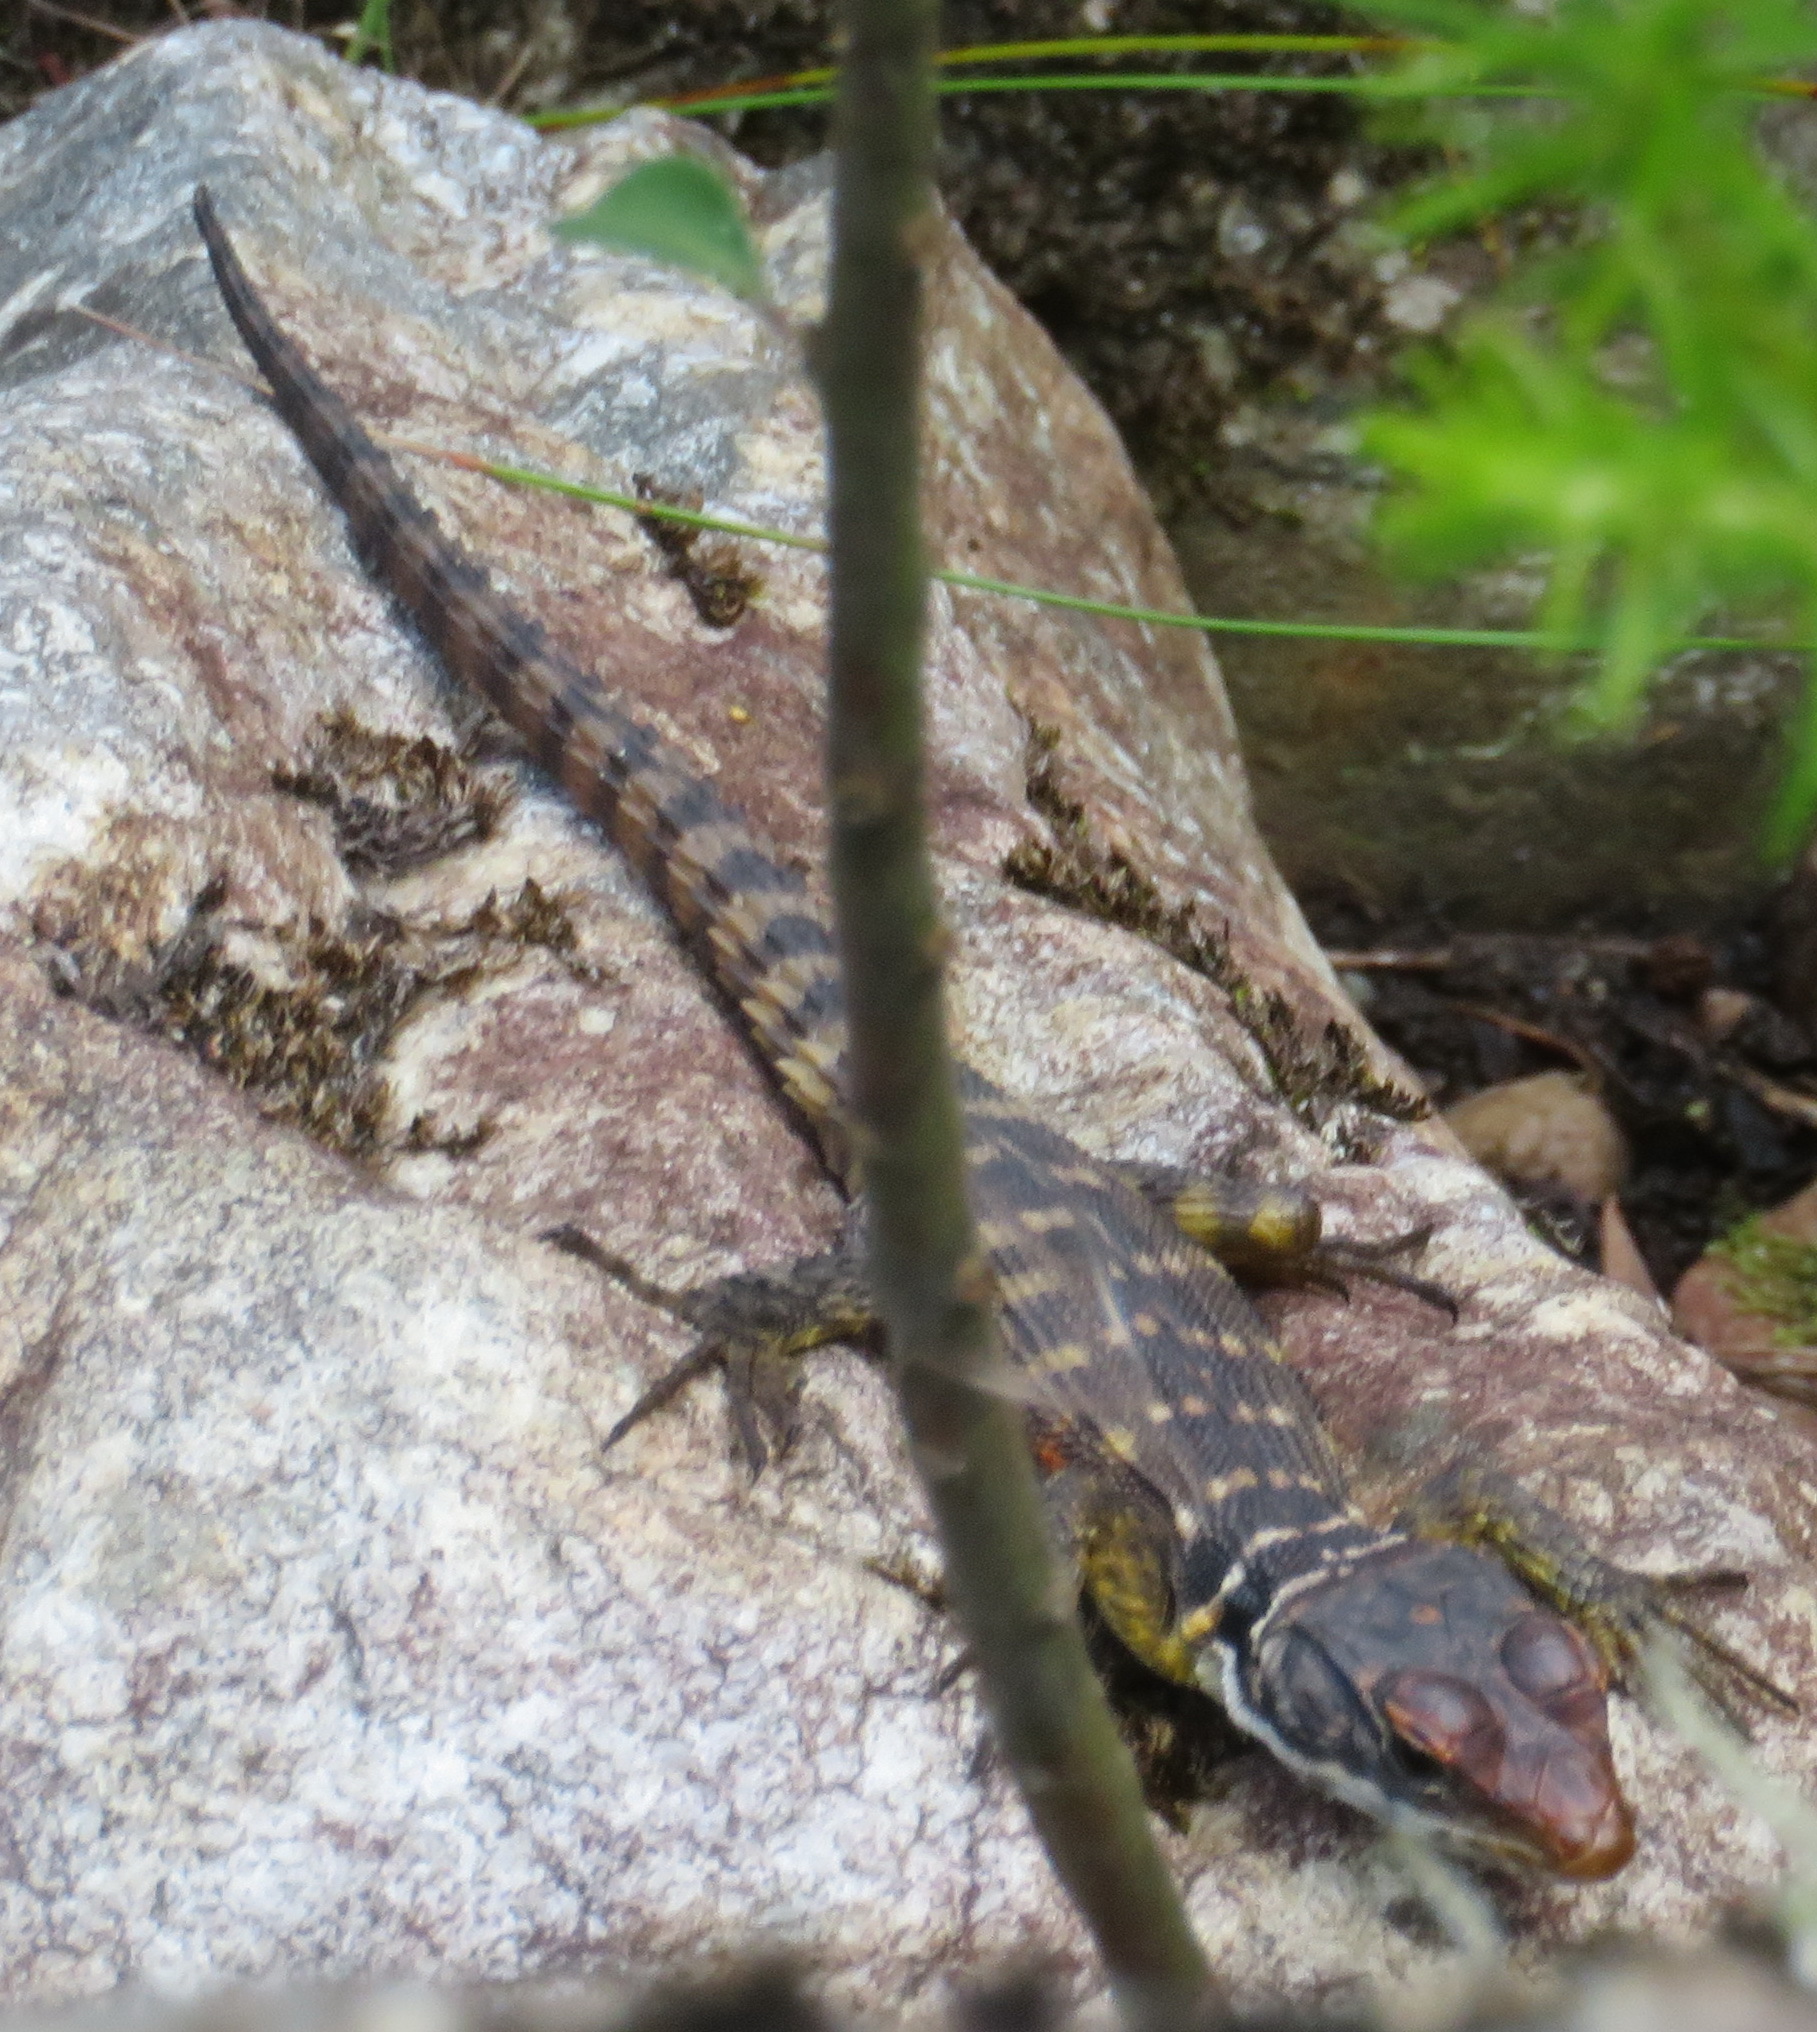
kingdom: Animalia
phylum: Chordata
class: Squamata
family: Cordylidae
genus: Pseudocordylus
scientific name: Pseudocordylus microlepidotus
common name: Cape crag lizard
